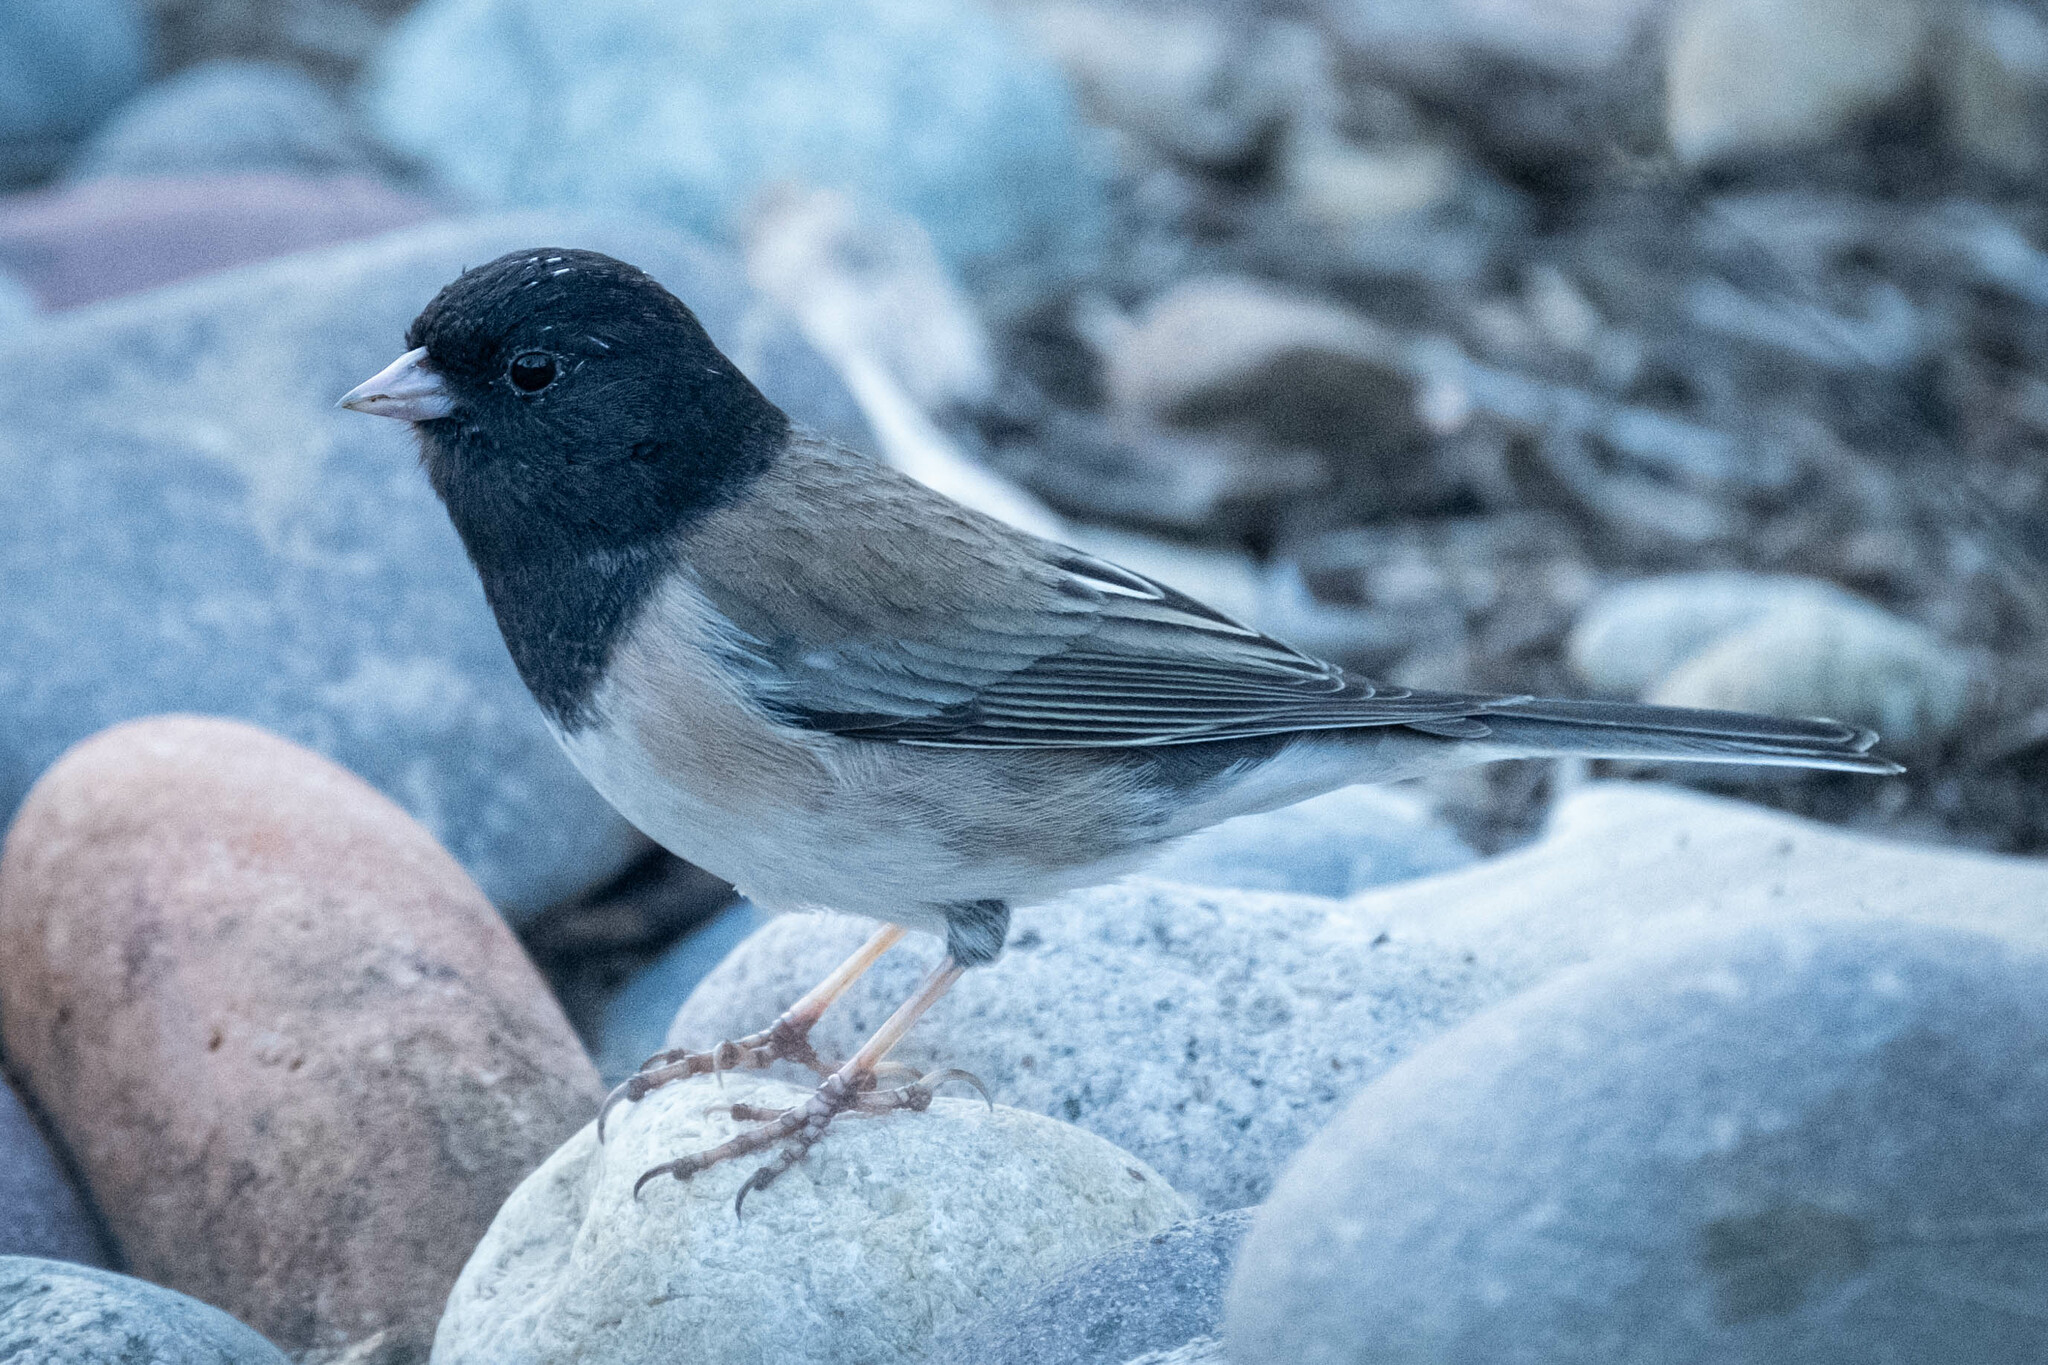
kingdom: Animalia
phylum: Chordata
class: Aves
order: Passeriformes
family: Passerellidae
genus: Junco
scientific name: Junco hyemalis
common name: Dark-eyed junco
